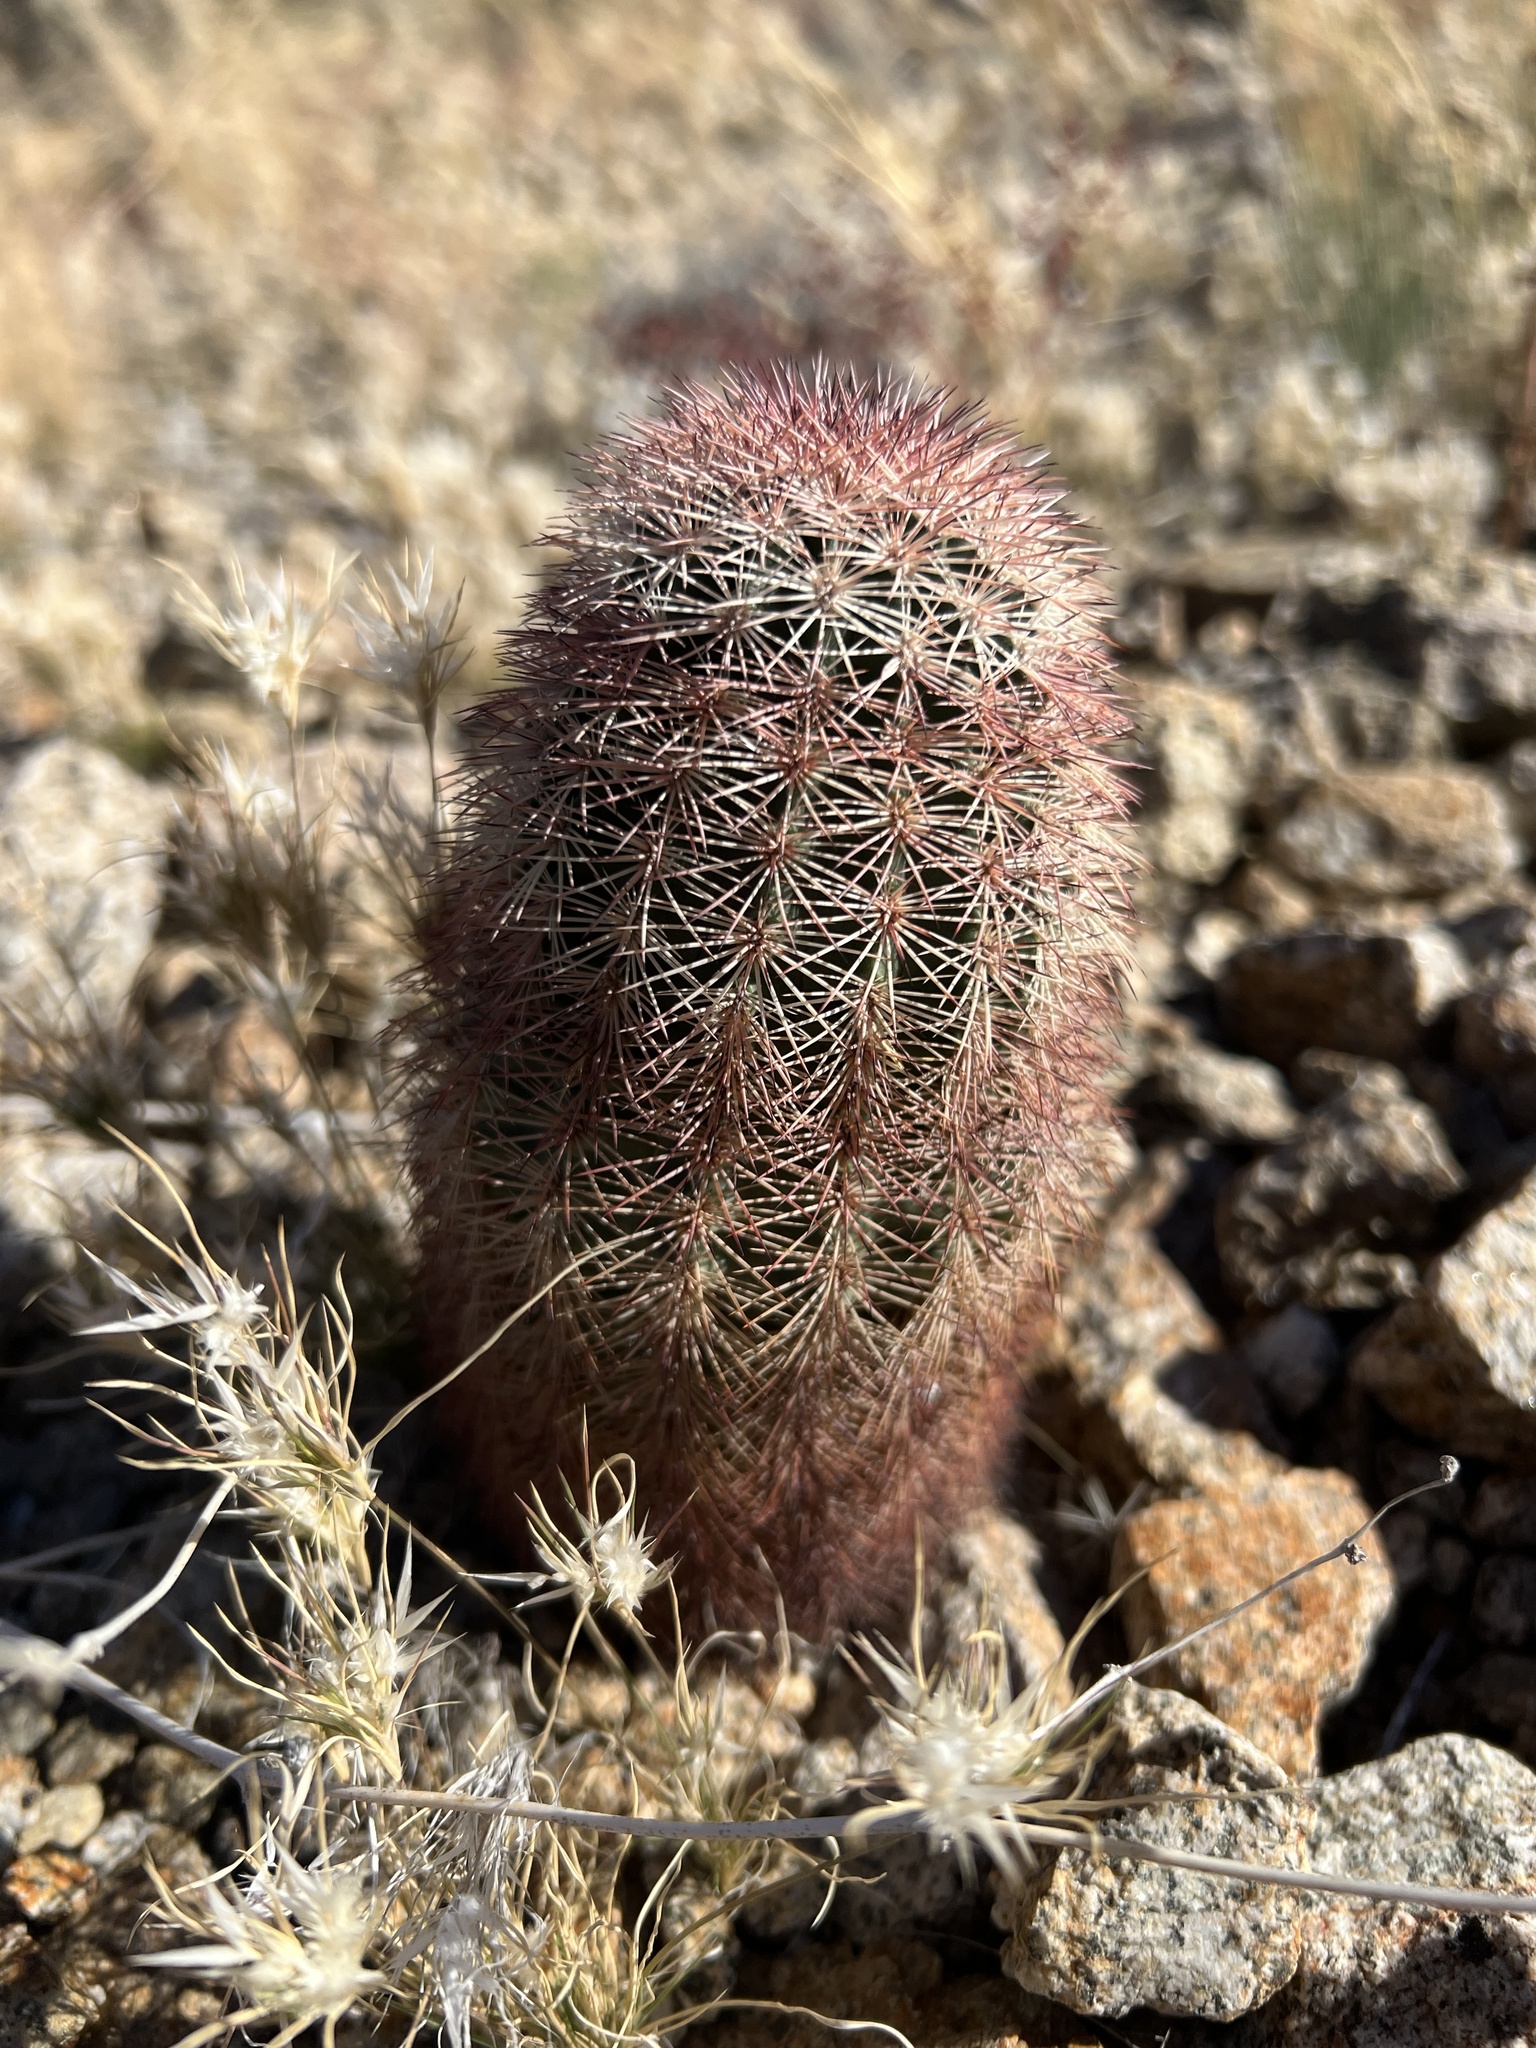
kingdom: Plantae
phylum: Tracheophyta
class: Magnoliopsida
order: Caryophyllales
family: Cactaceae
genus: Echinocereus
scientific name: Echinocereus dasyacanthus
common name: Spiny hedgehog cactus
